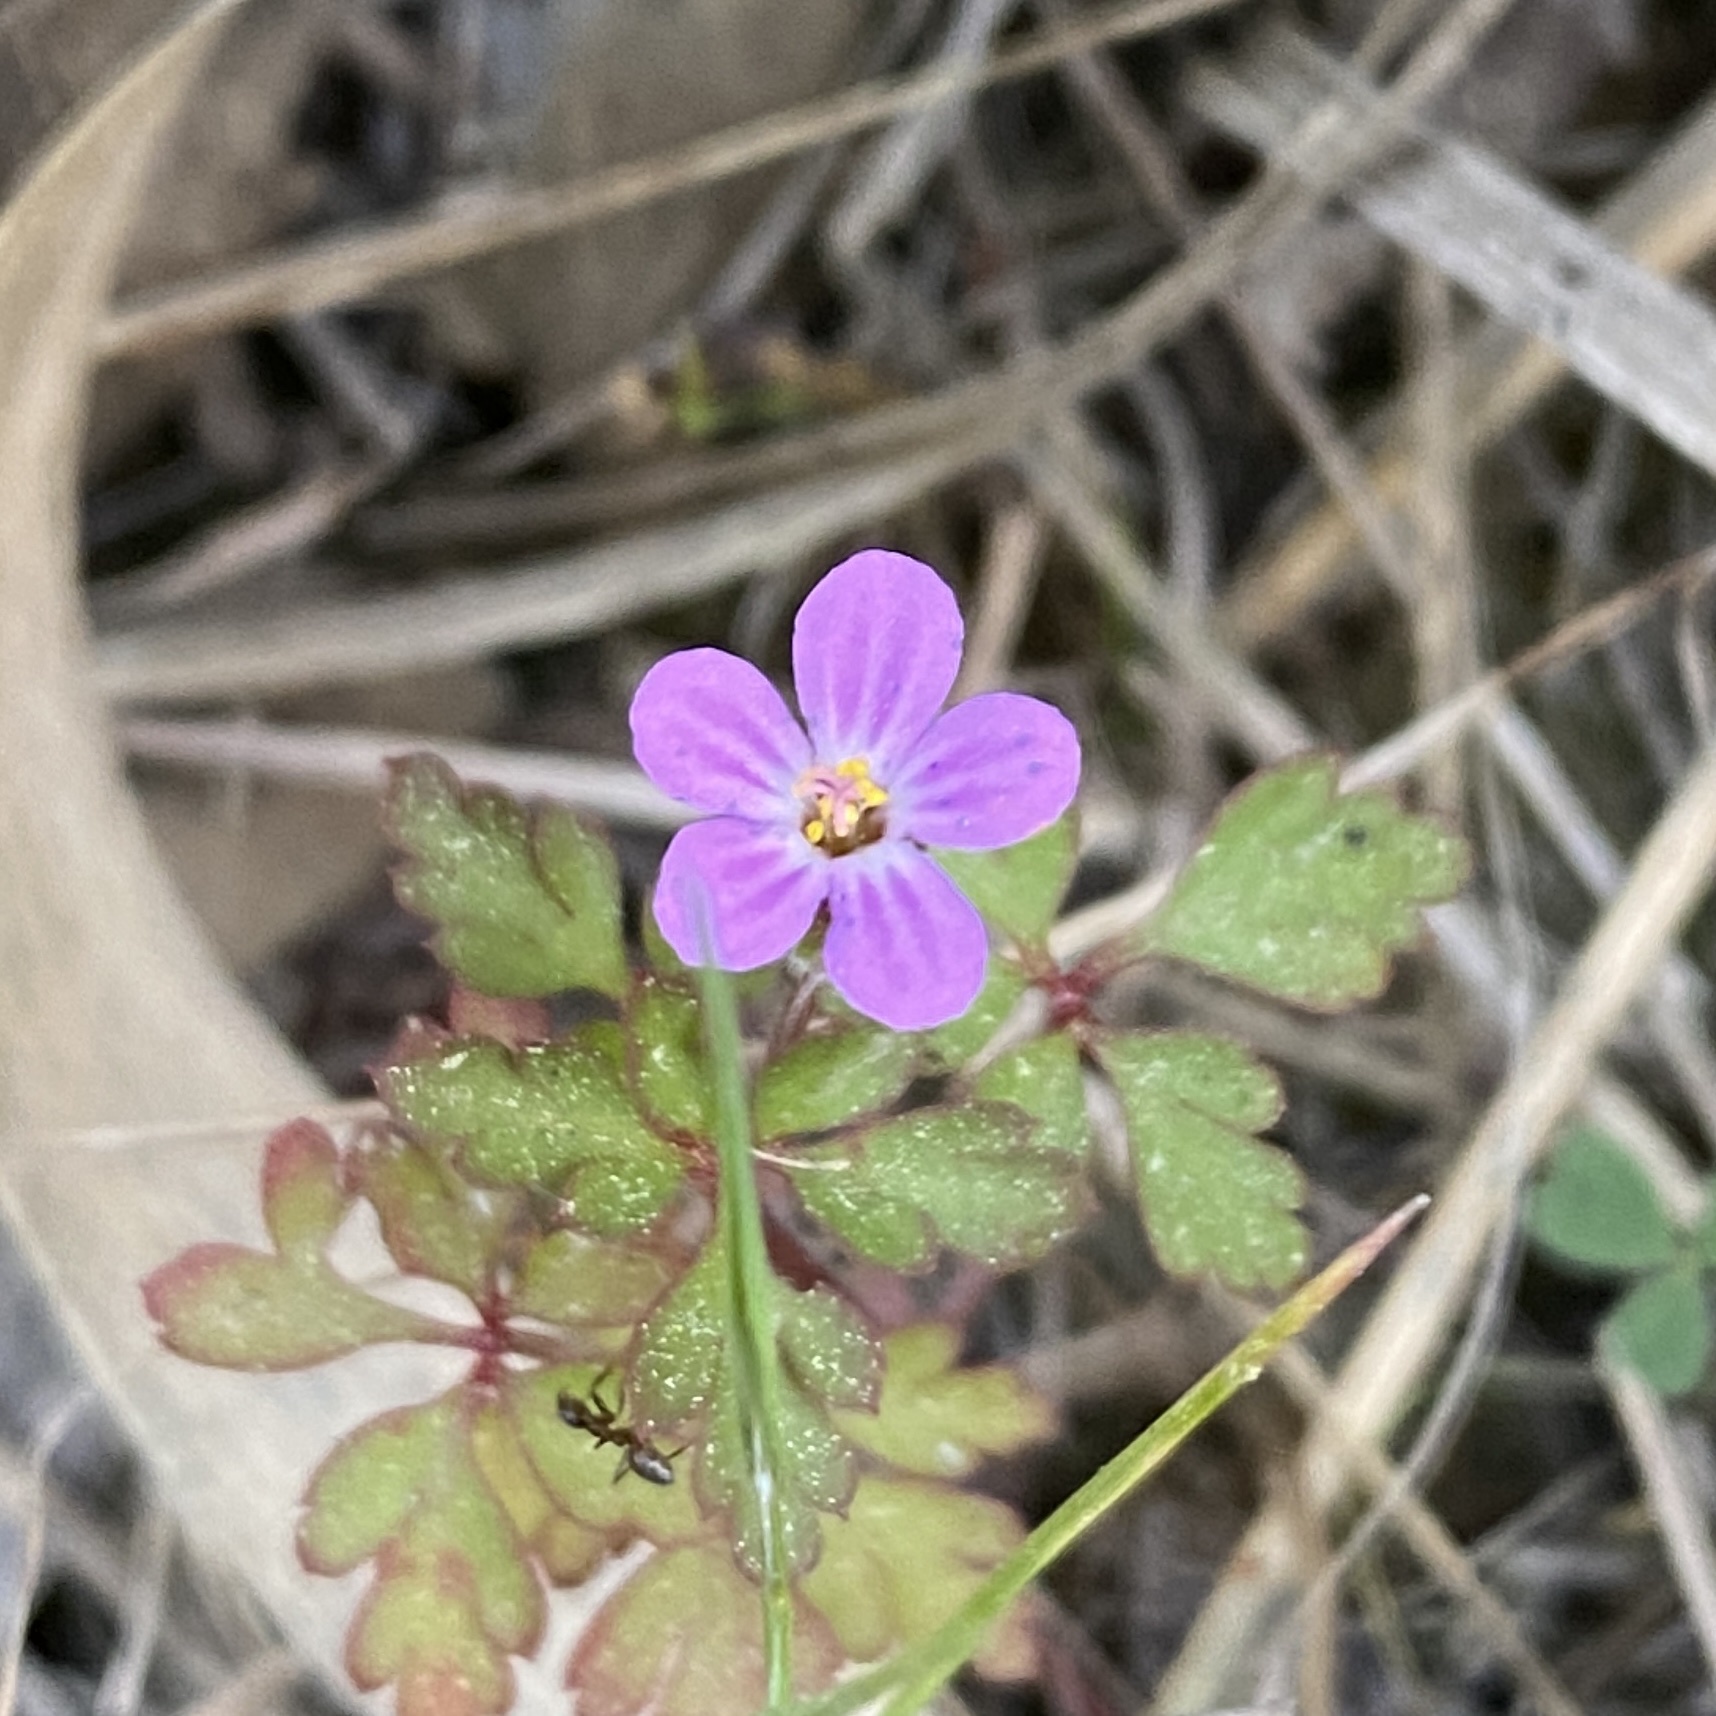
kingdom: Plantae
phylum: Tracheophyta
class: Magnoliopsida
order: Geraniales
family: Geraniaceae
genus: Geranium
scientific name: Geranium purpureum
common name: Little-robin
